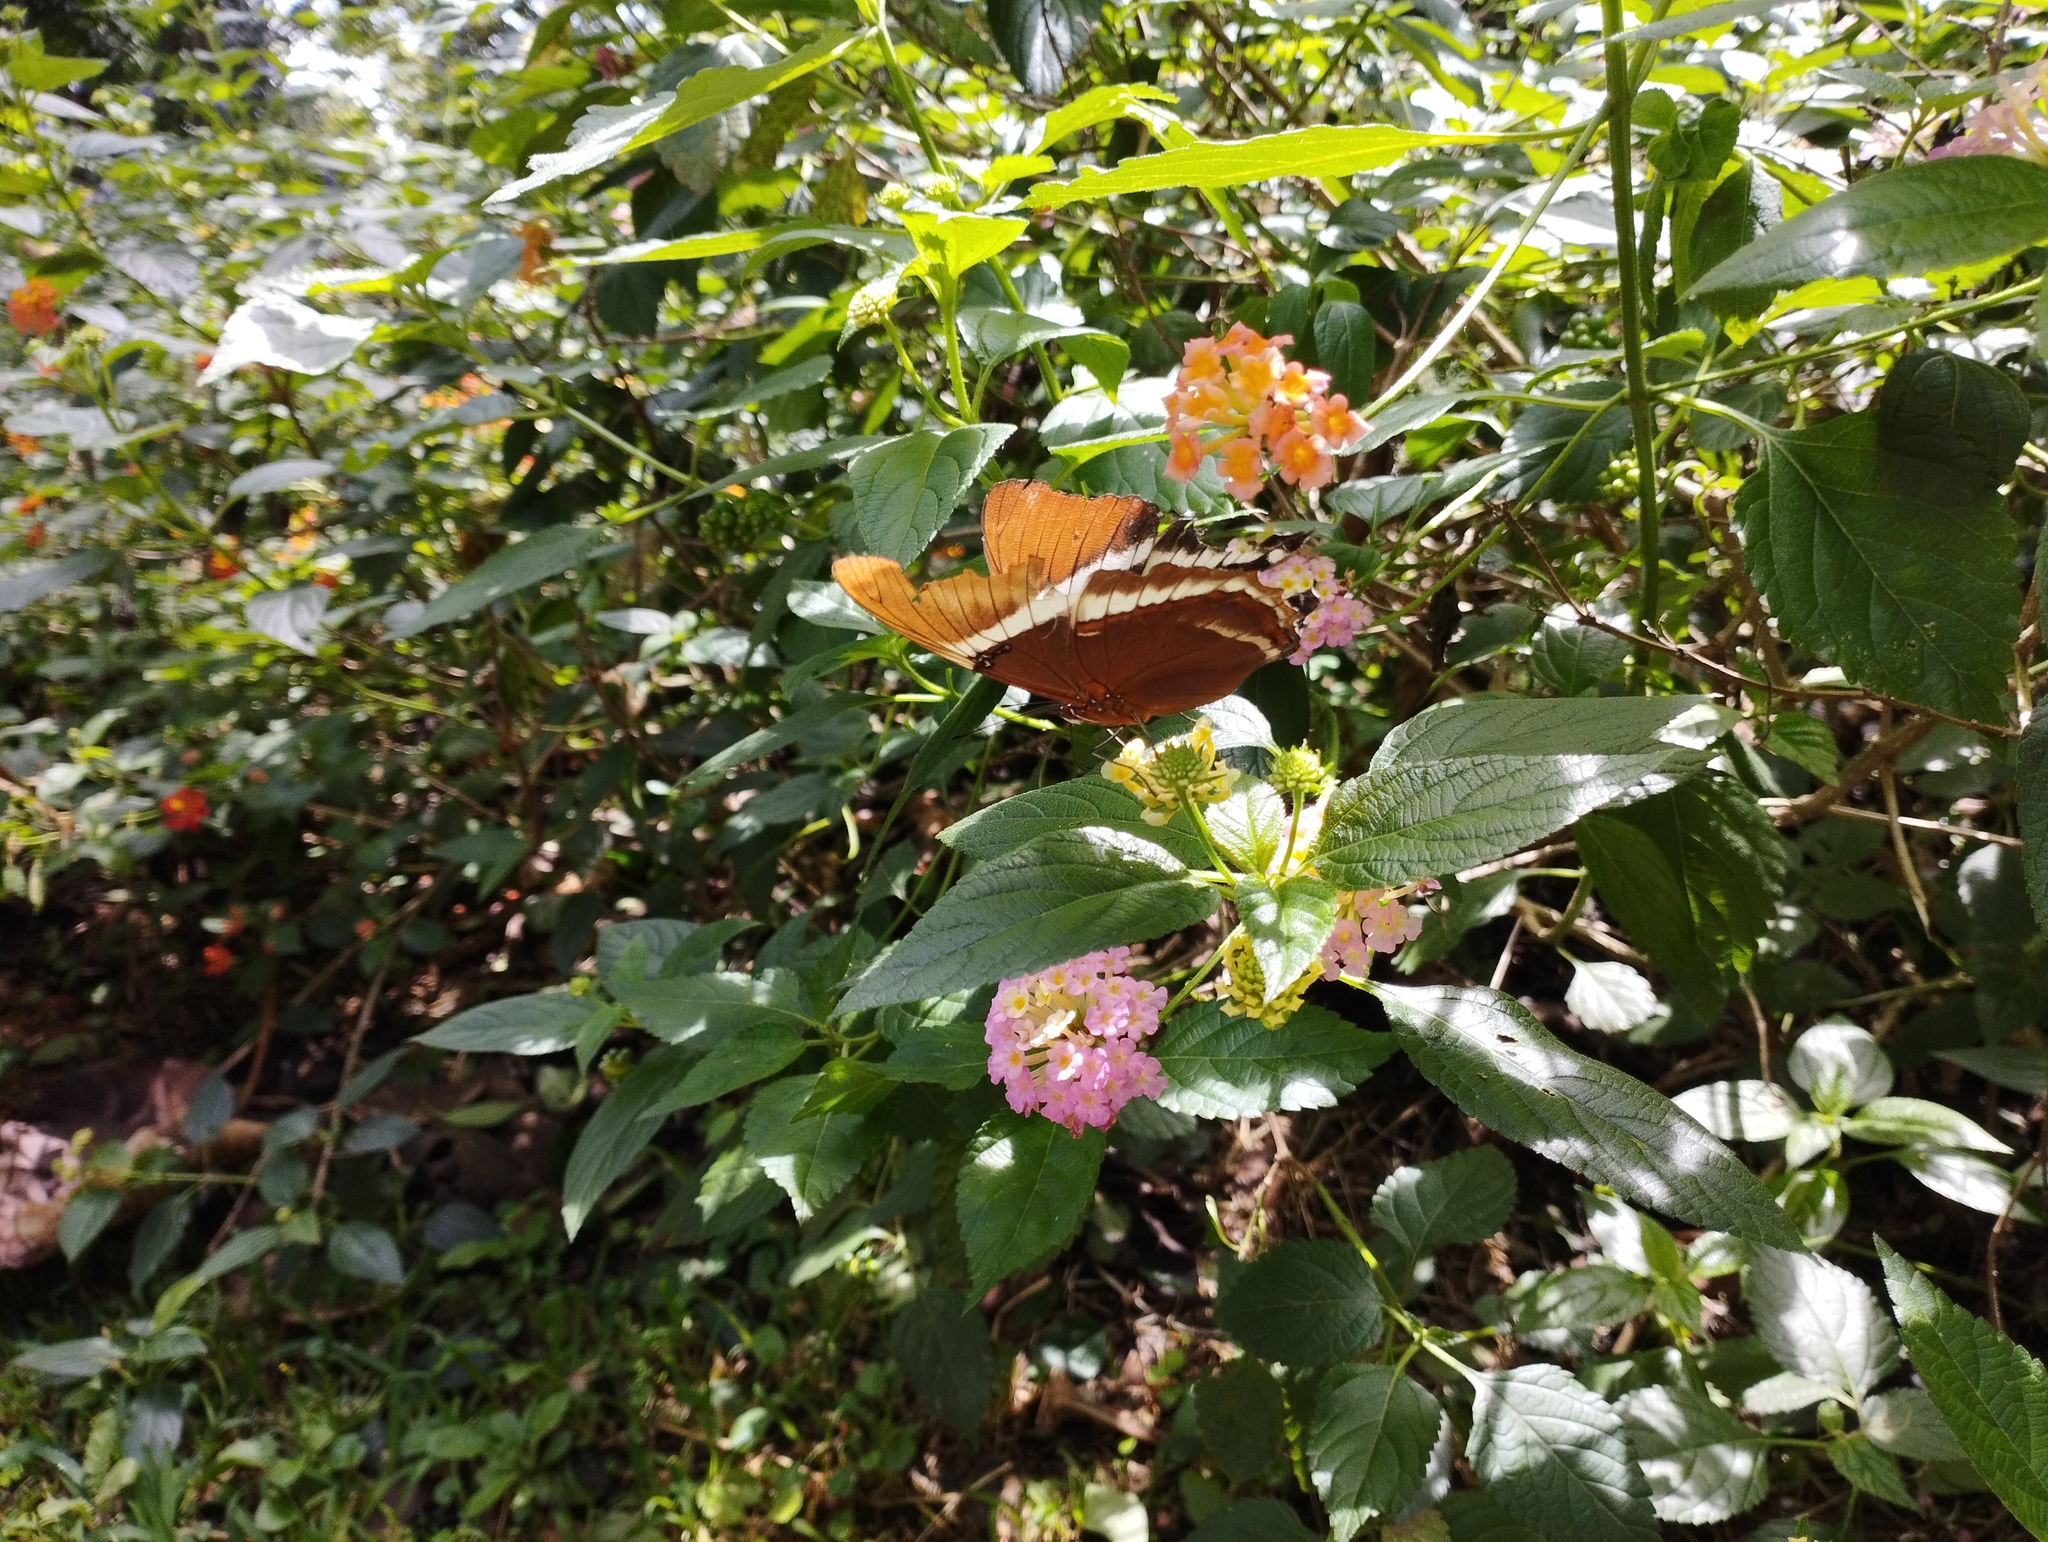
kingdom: Animalia
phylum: Arthropoda
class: Insecta
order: Lepidoptera
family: Nymphalidae
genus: Siproeta
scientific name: Siproeta epaphus
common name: Rusty-tipped page
